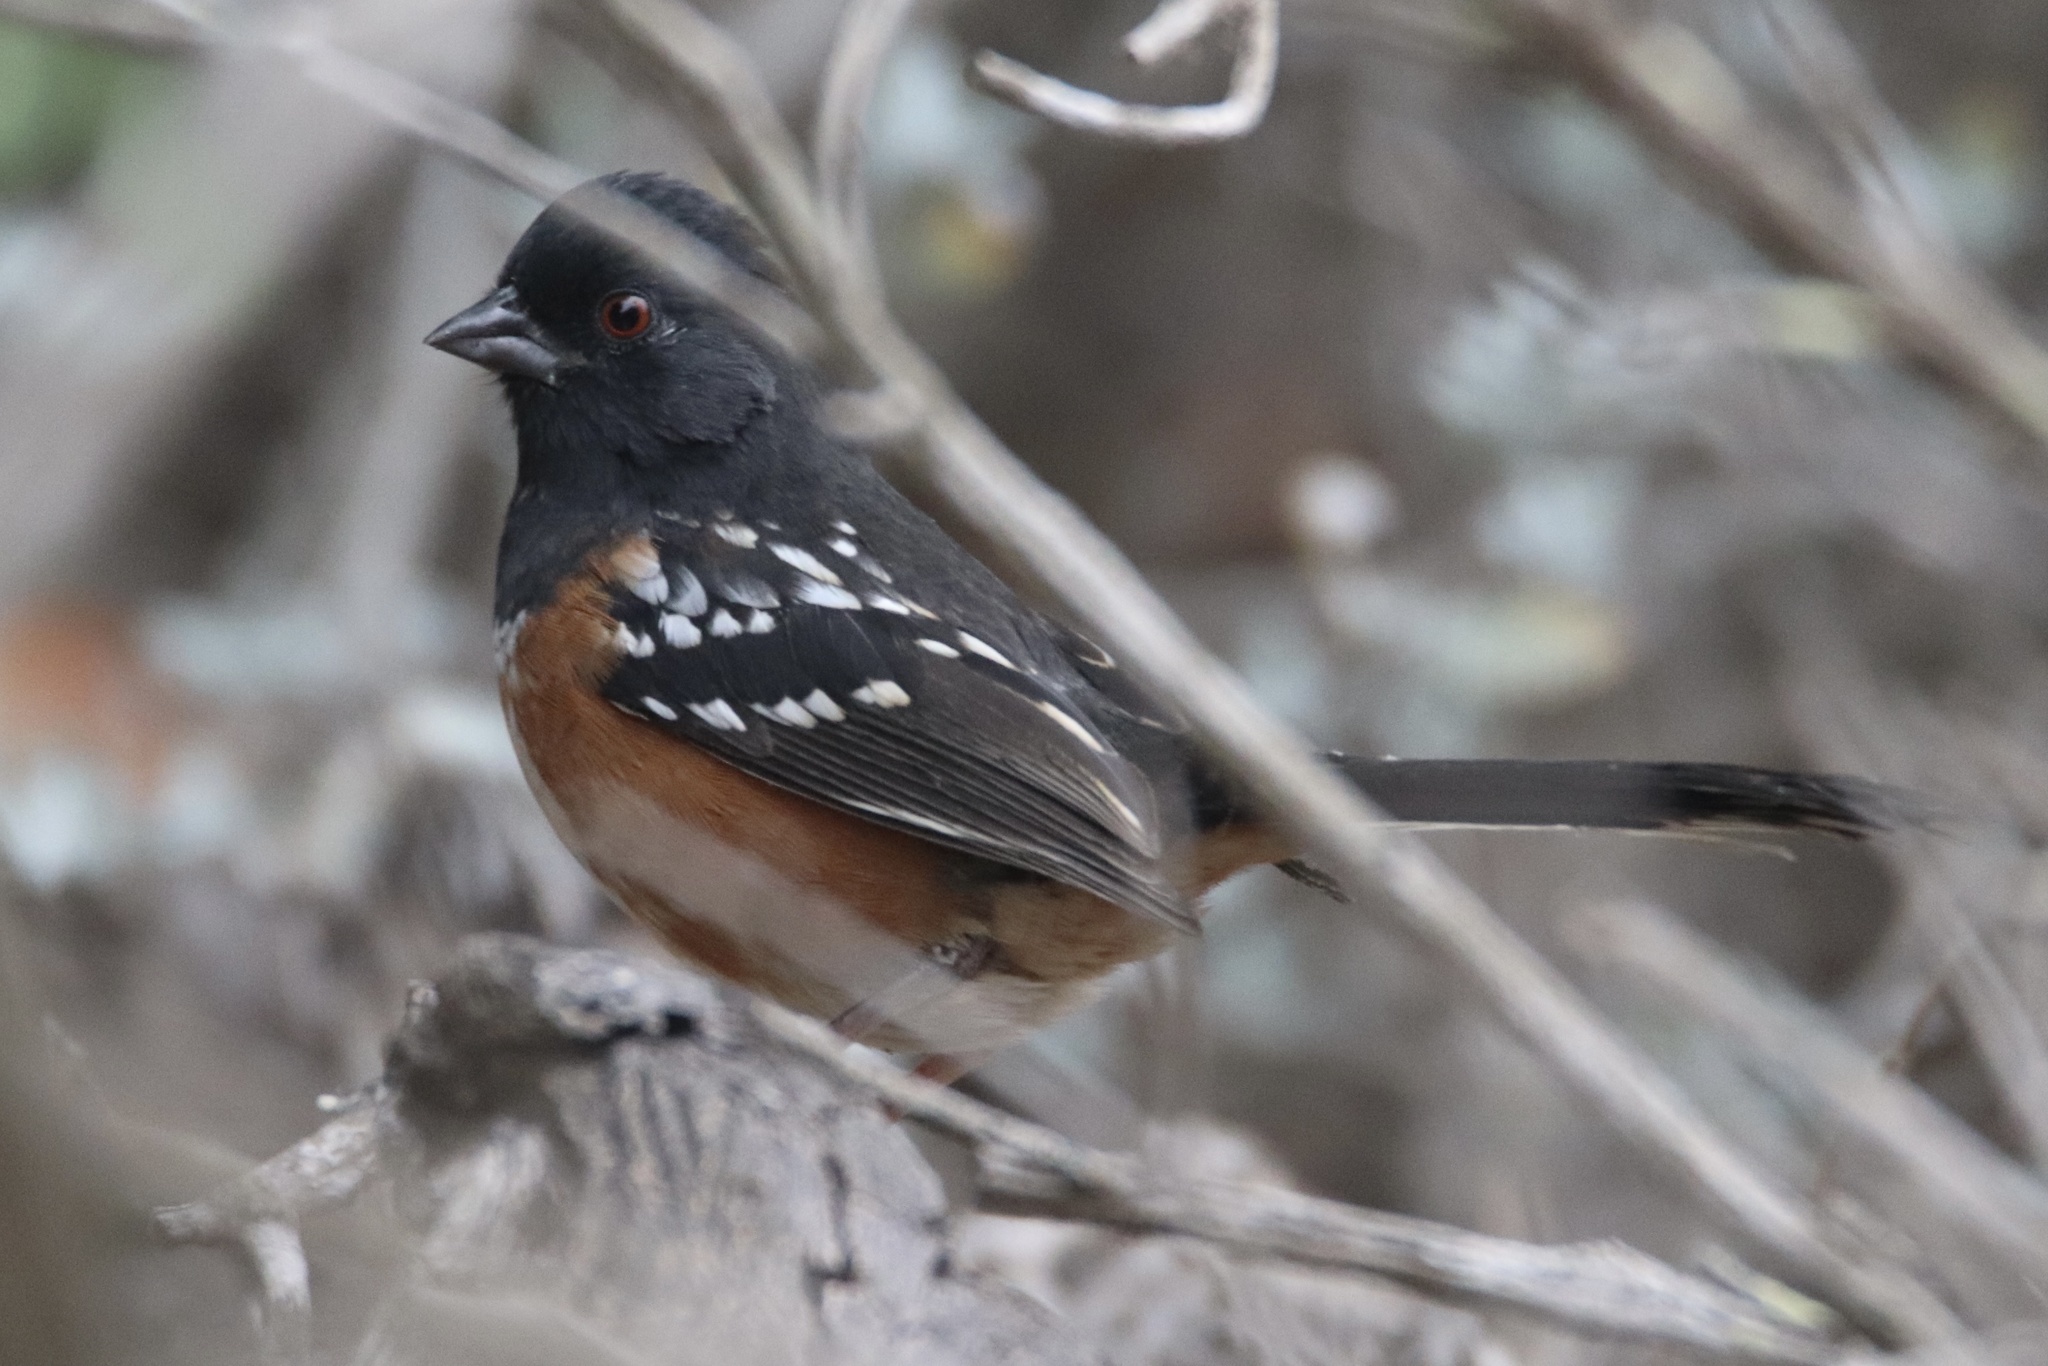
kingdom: Animalia
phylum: Chordata
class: Aves
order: Passeriformes
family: Passerellidae
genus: Pipilo
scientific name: Pipilo maculatus
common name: Spotted towhee
